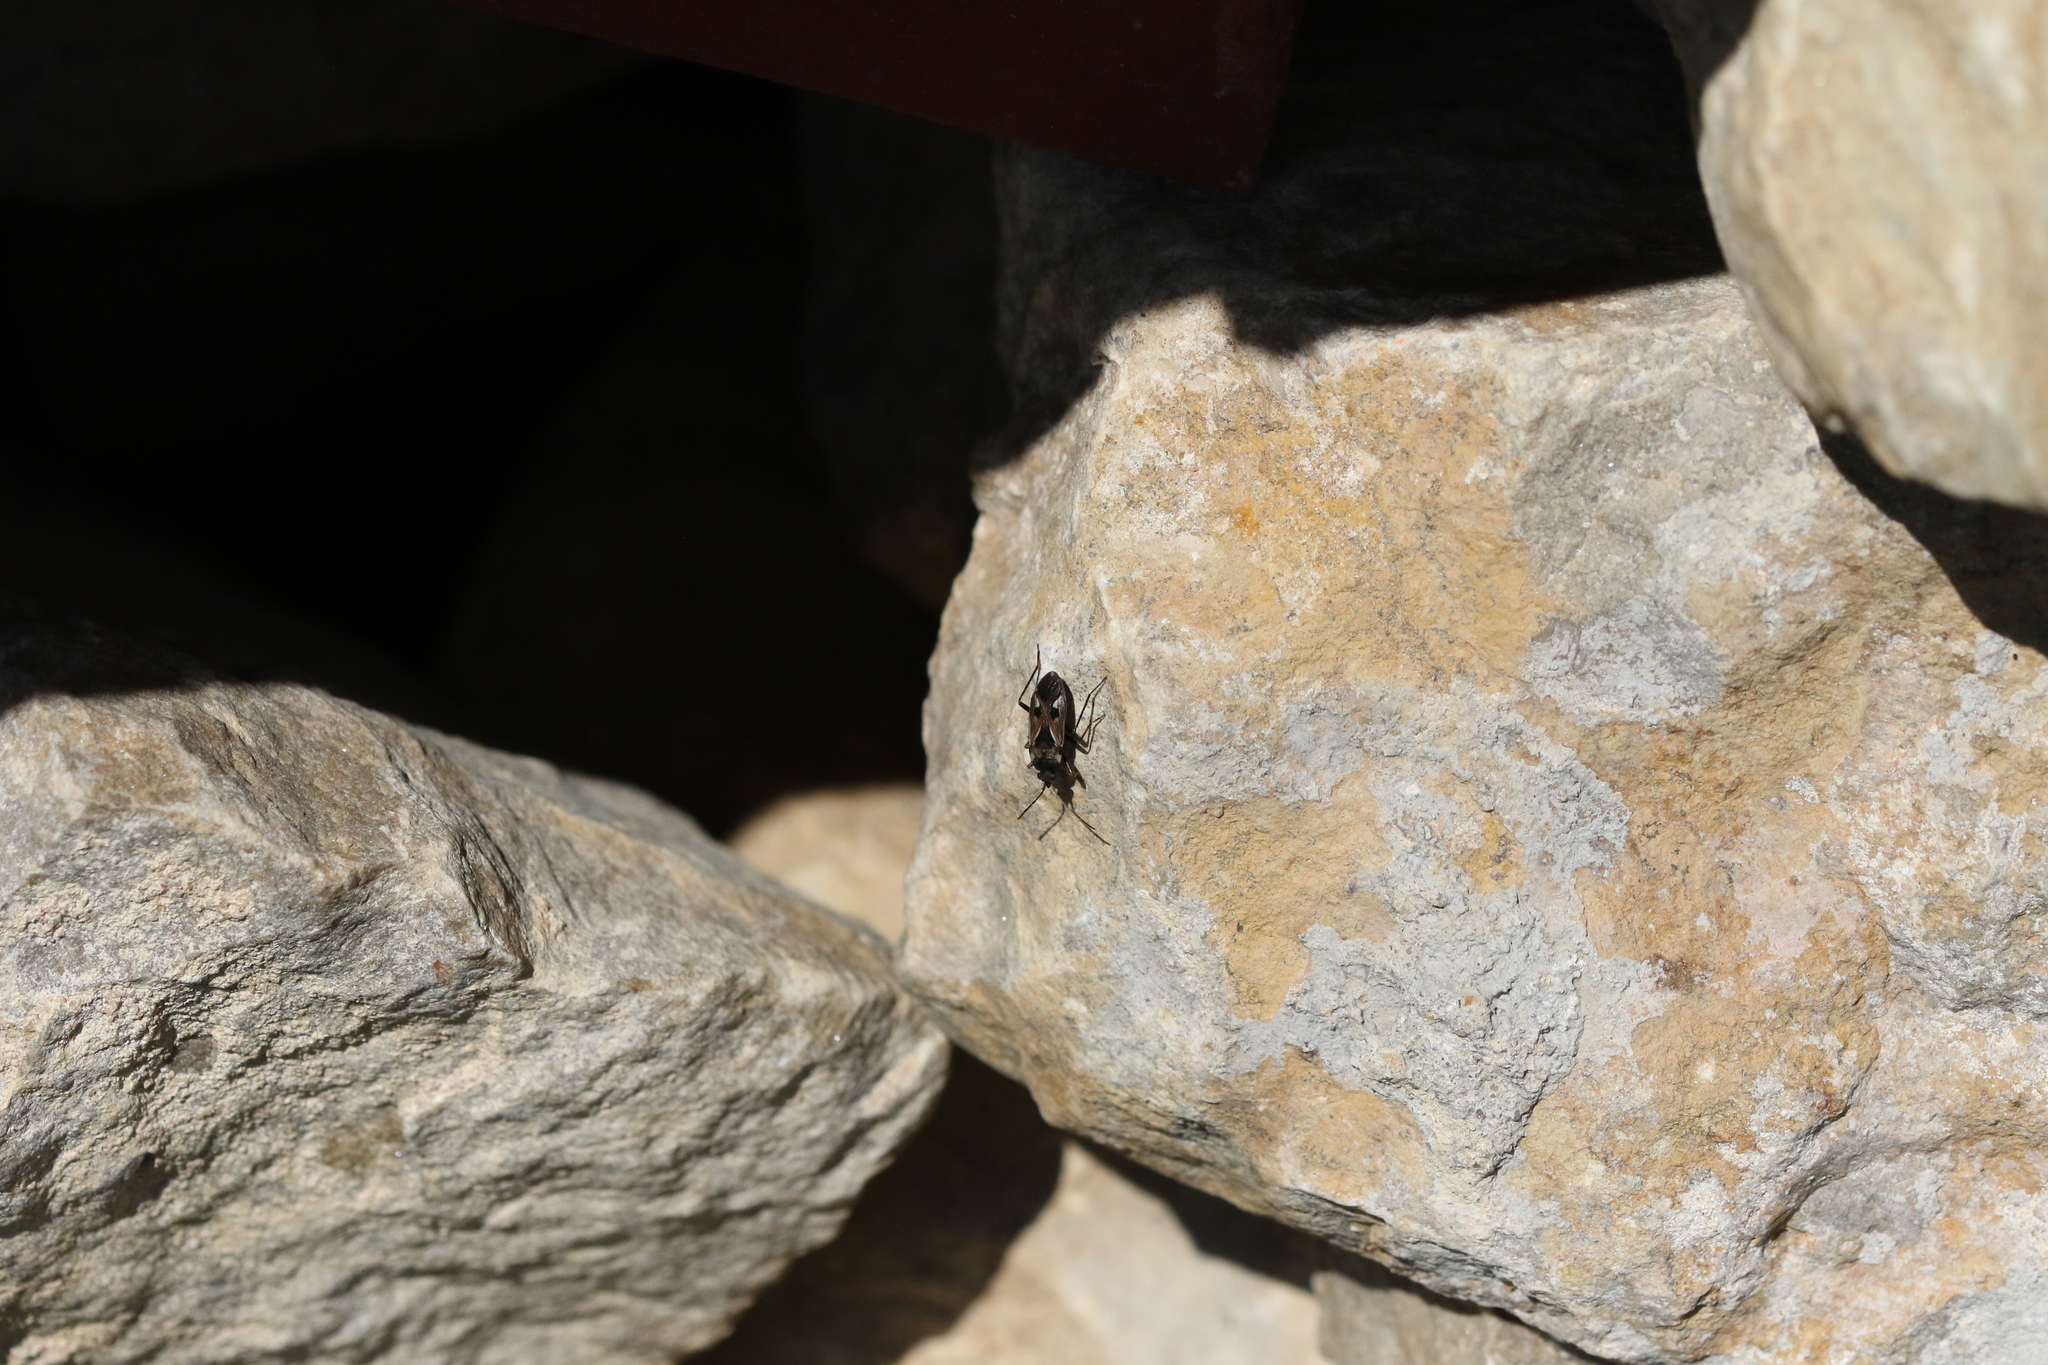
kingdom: Animalia
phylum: Arthropoda
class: Insecta
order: Hemiptera
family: Rhyparochromidae
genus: Rhyparochromus
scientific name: Rhyparochromus vulgaris
